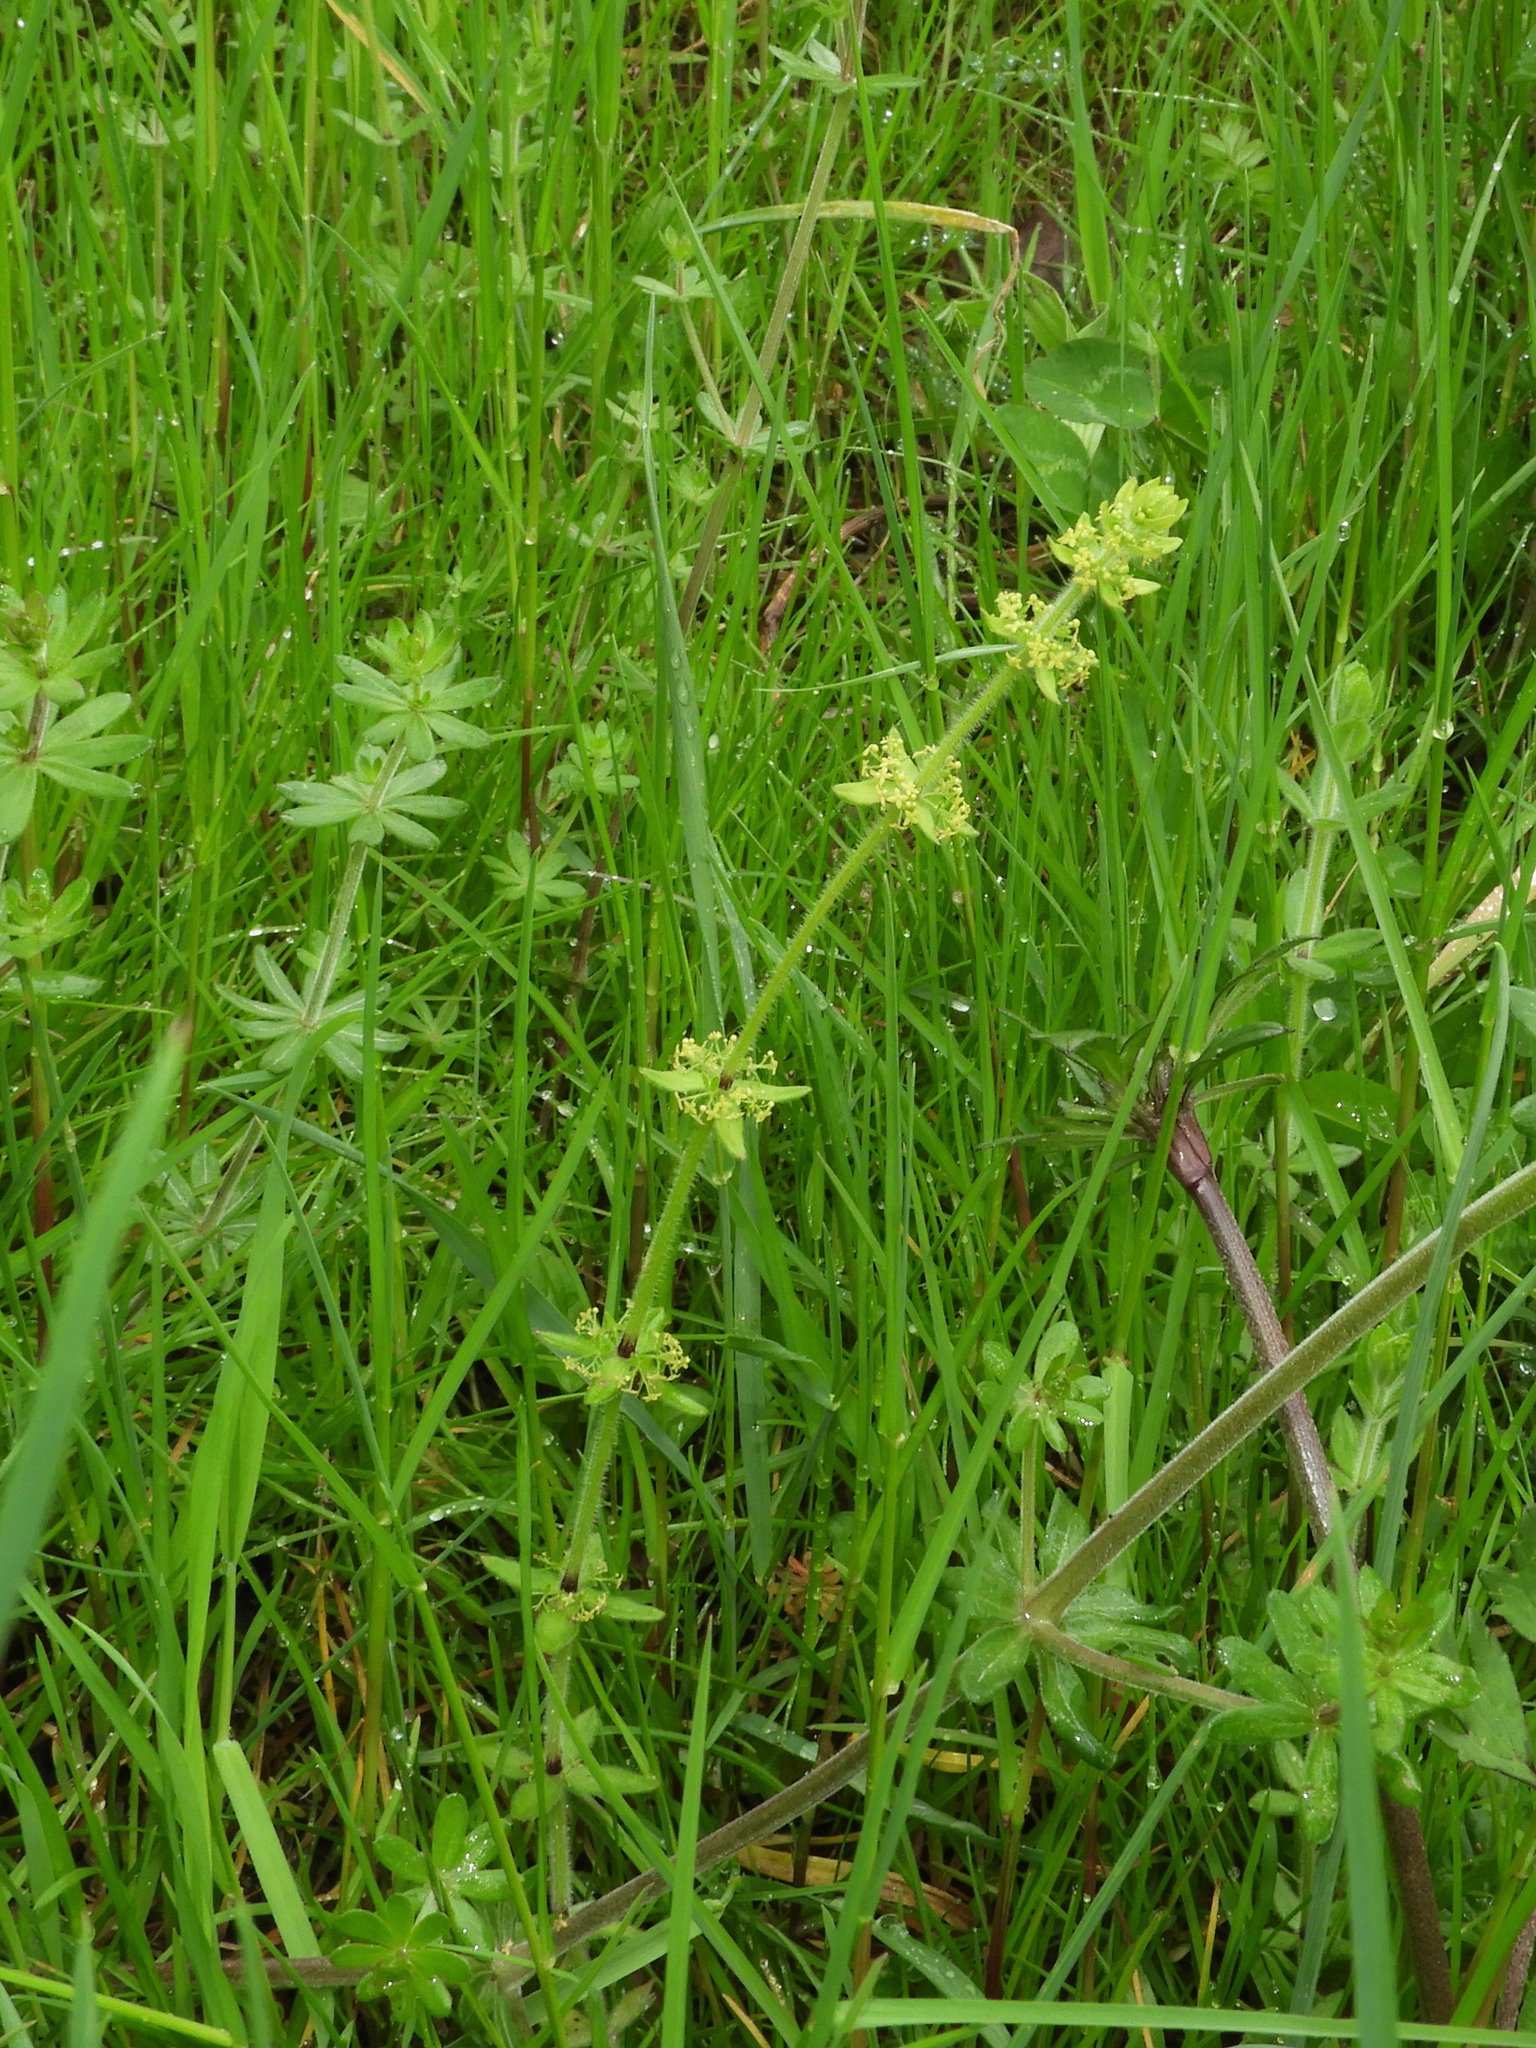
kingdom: Plantae
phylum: Tracheophyta
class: Magnoliopsida
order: Gentianales
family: Rubiaceae
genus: Cruciata
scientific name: Cruciata laevipes
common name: Crosswort
